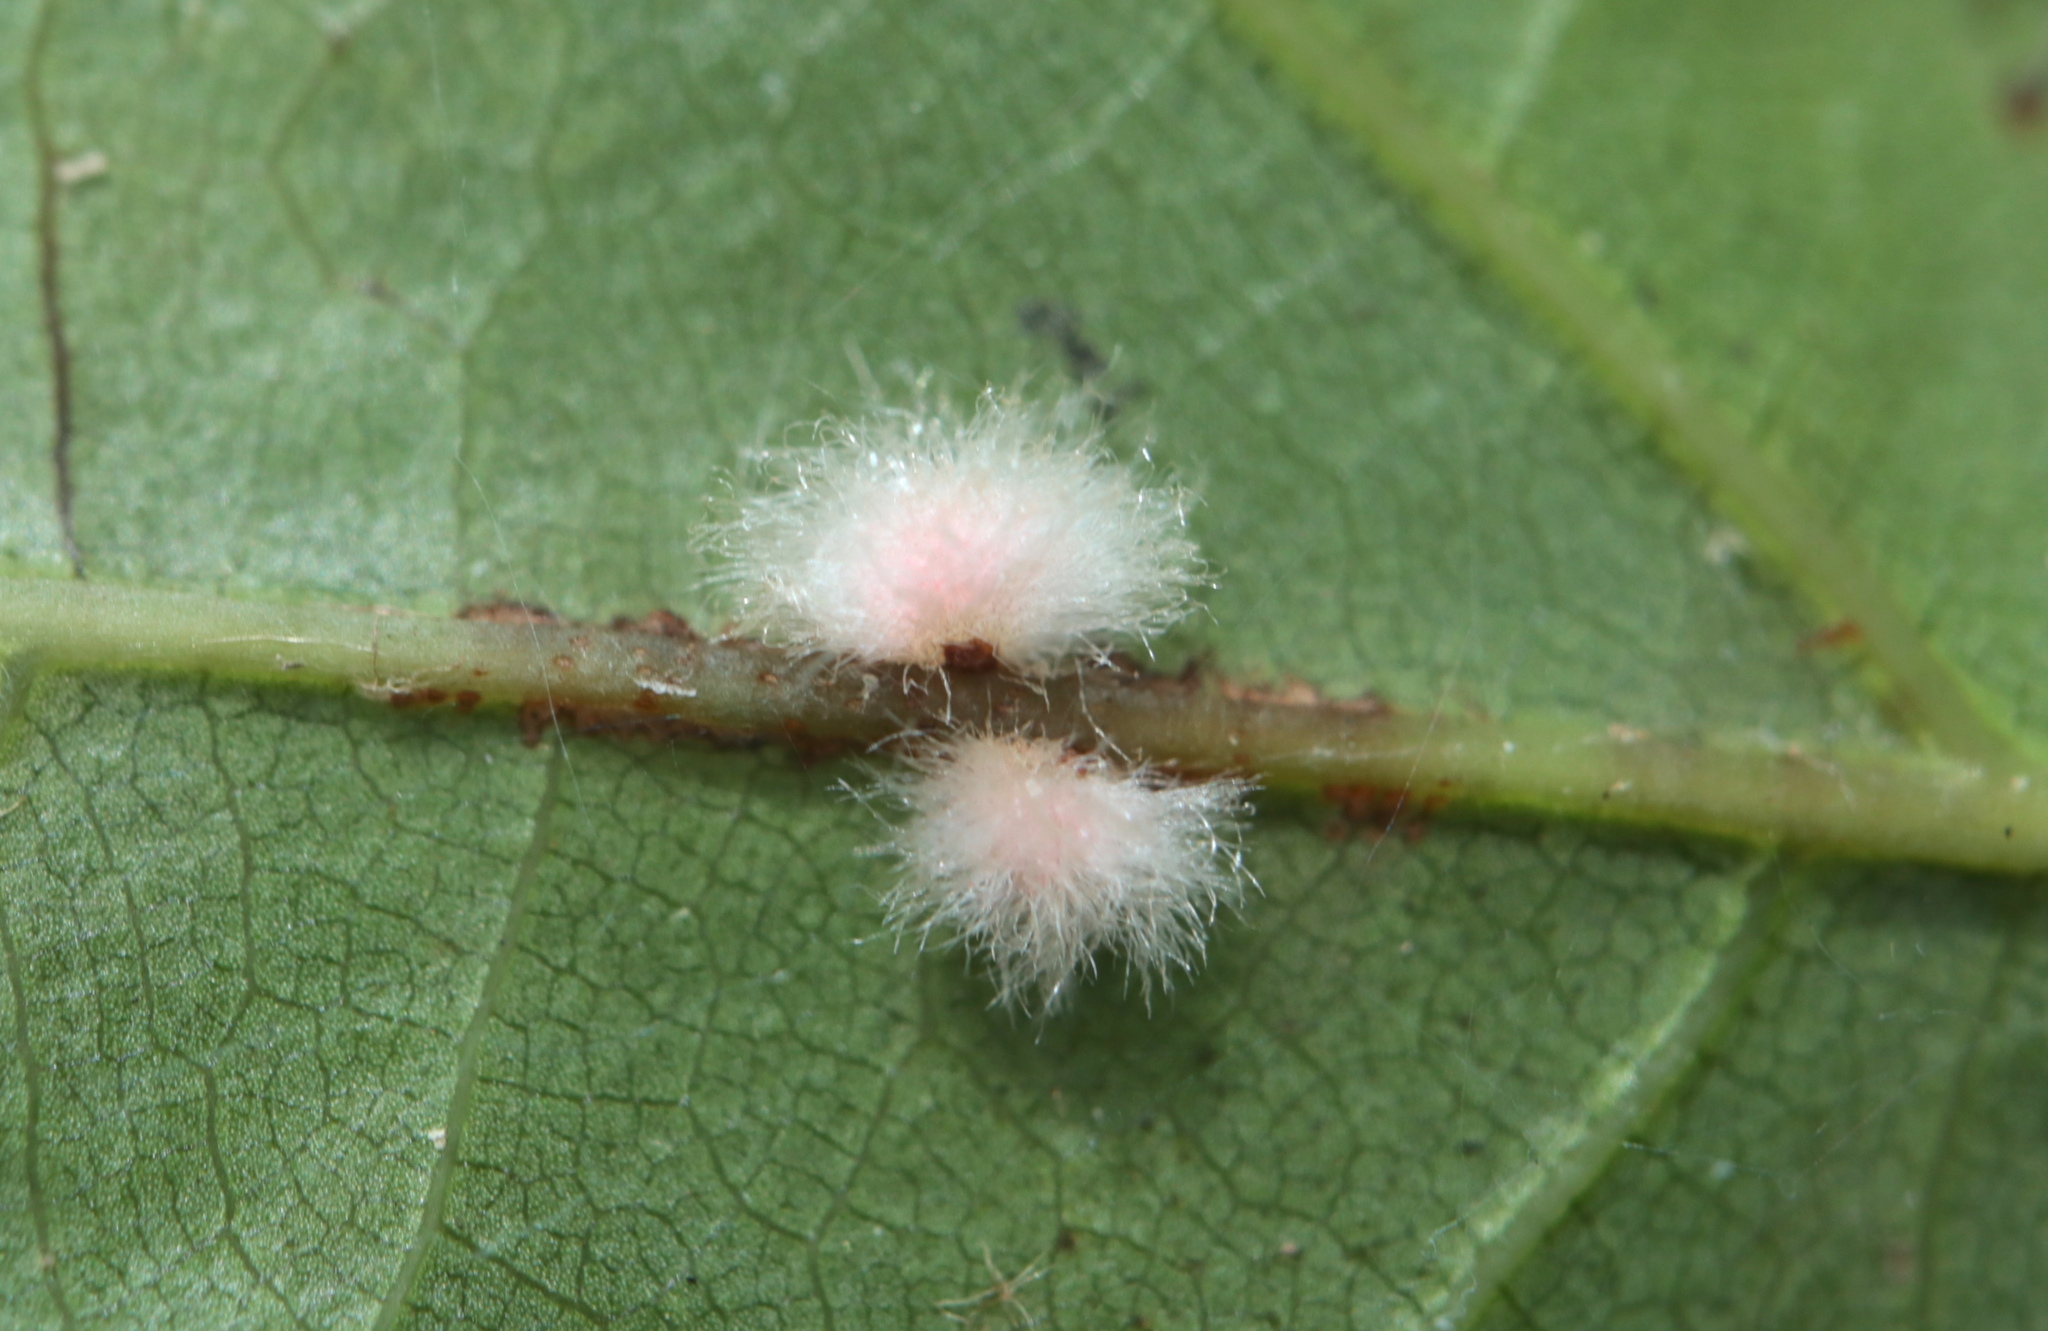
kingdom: Animalia
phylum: Arthropoda
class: Insecta
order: Hymenoptera
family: Cynipidae
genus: Callirhytis
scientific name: Callirhytis
